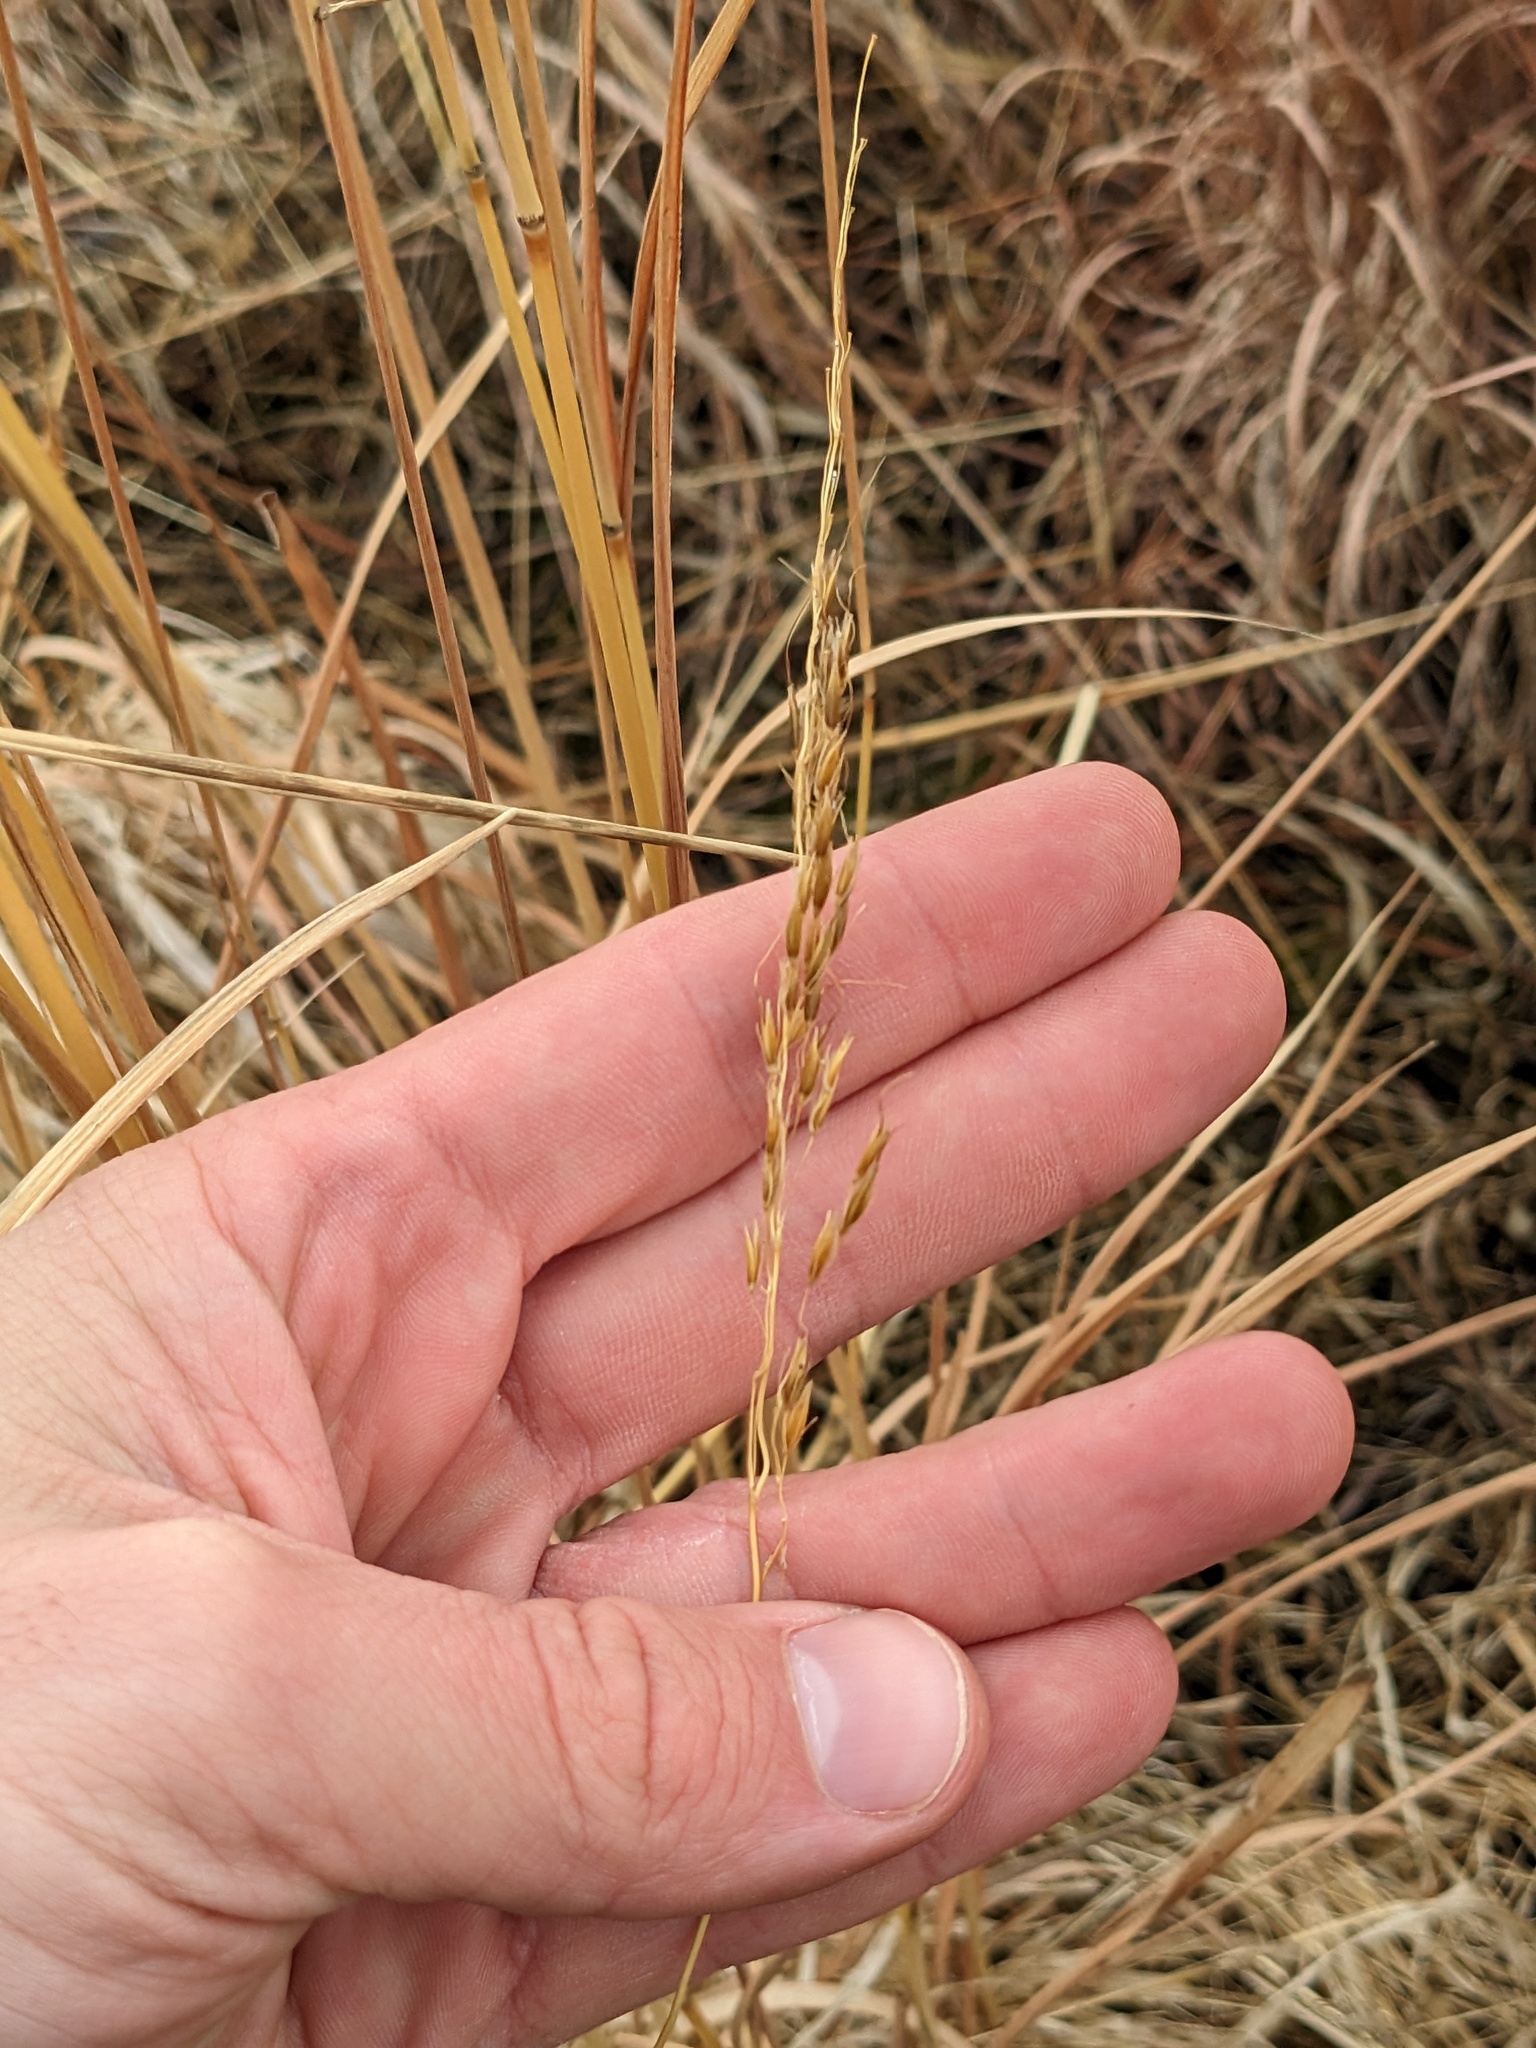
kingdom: Plantae
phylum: Tracheophyta
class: Liliopsida
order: Poales
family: Poaceae
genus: Sorghastrum
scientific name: Sorghastrum nutans
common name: Indian grass
